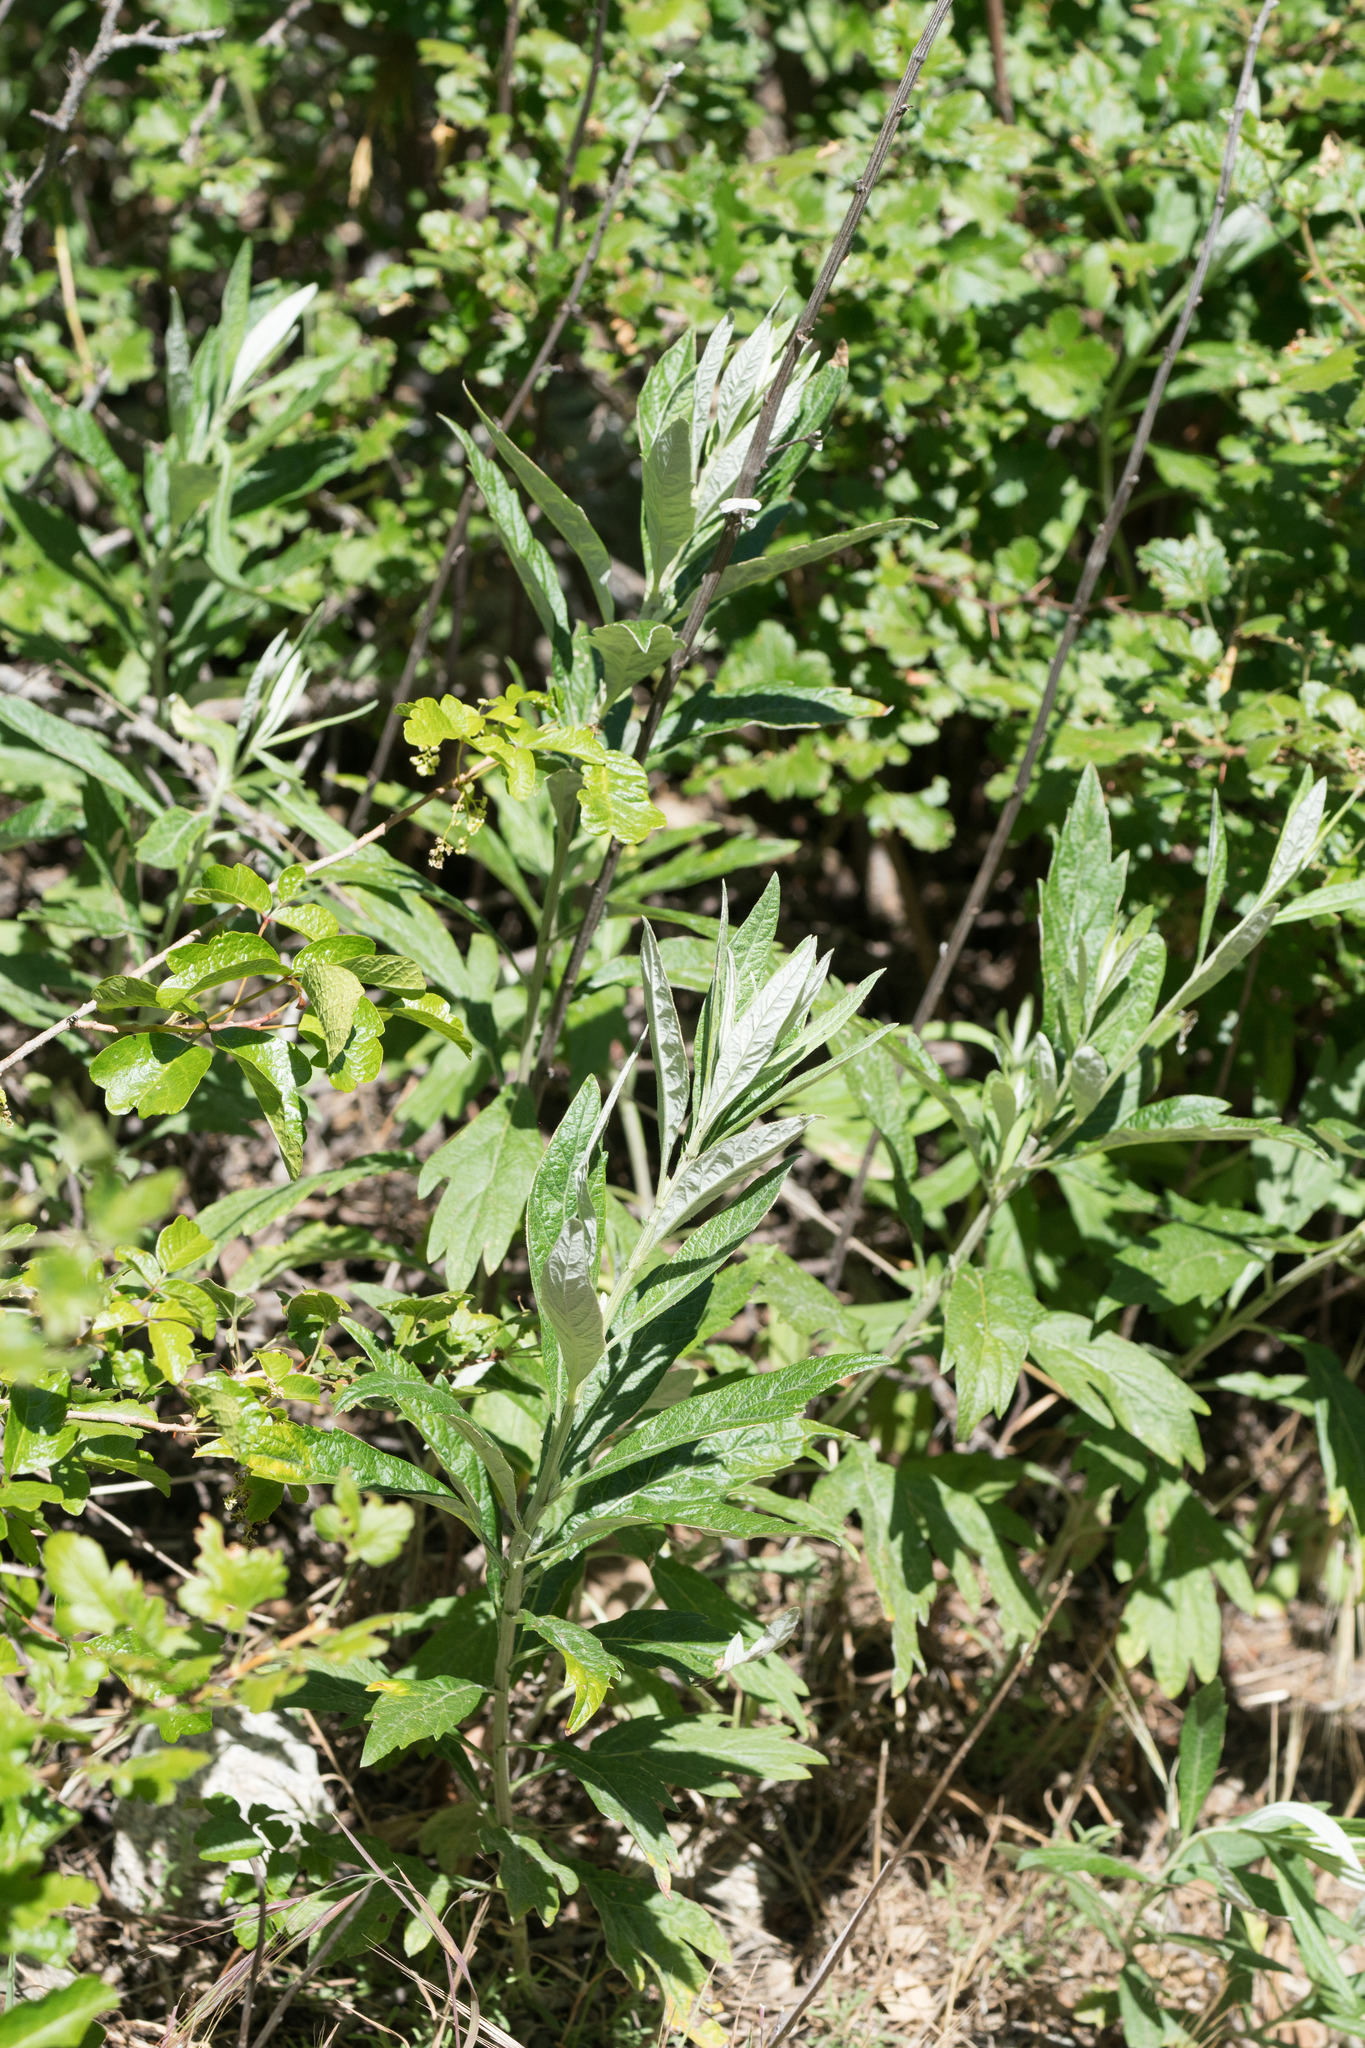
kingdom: Plantae
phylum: Tracheophyta
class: Magnoliopsida
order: Asterales
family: Asteraceae
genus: Artemisia
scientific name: Artemisia douglasiana
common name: Northwest mugwort
